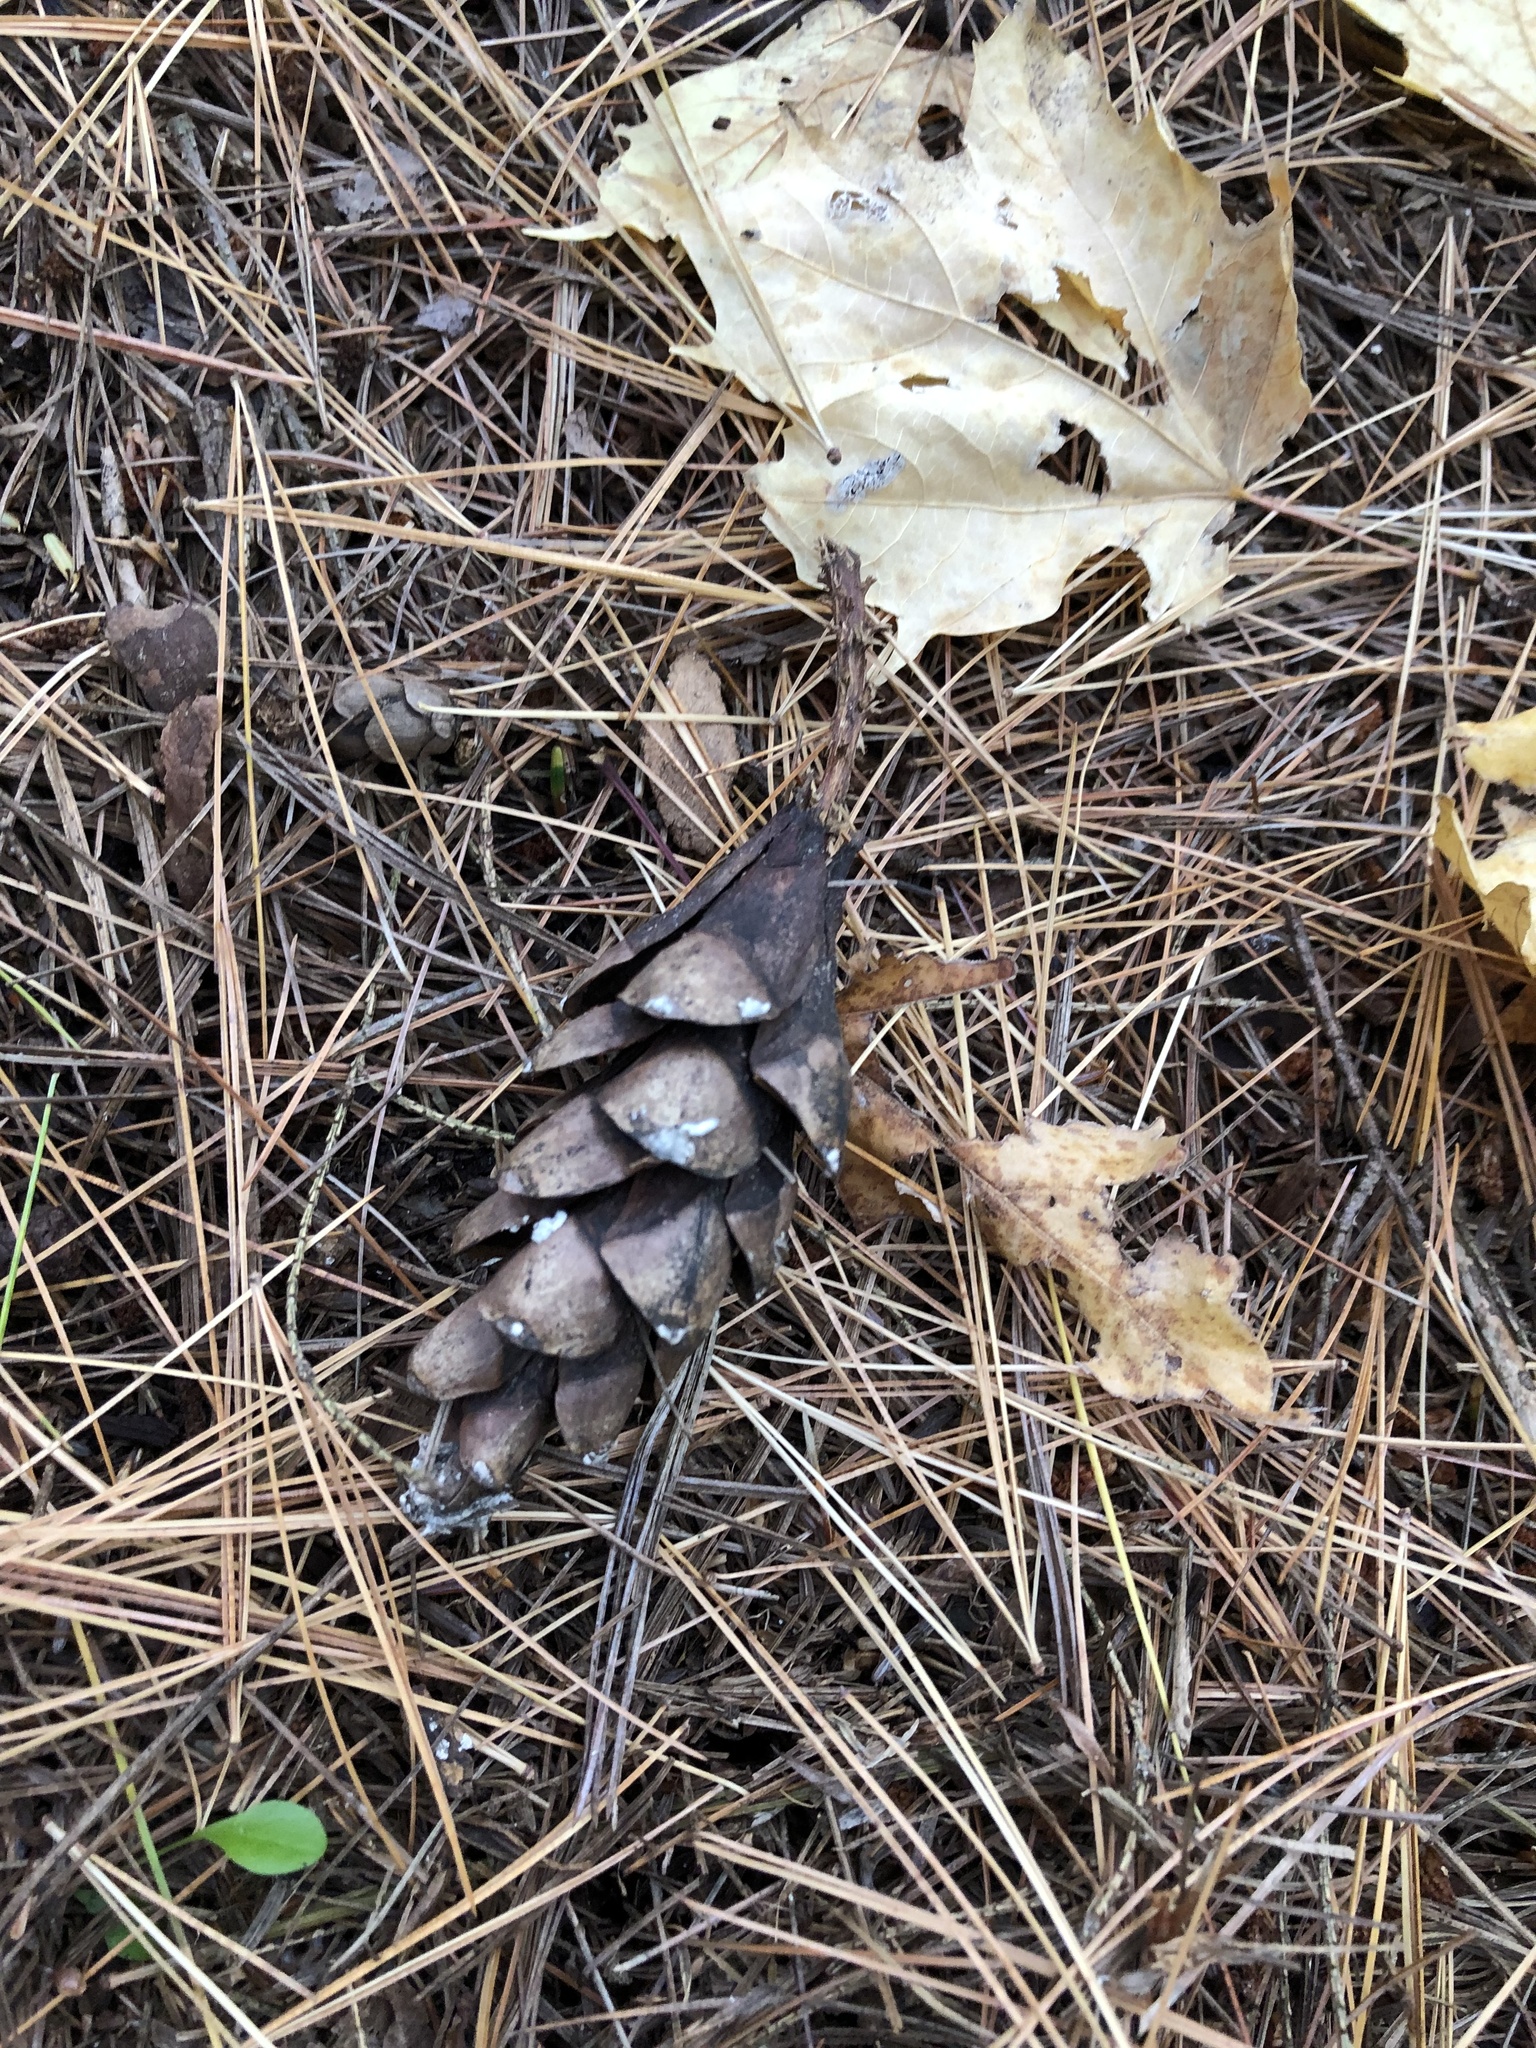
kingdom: Plantae
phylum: Tracheophyta
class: Pinopsida
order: Pinales
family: Pinaceae
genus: Pinus
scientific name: Pinus strobus
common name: Weymouth pine
